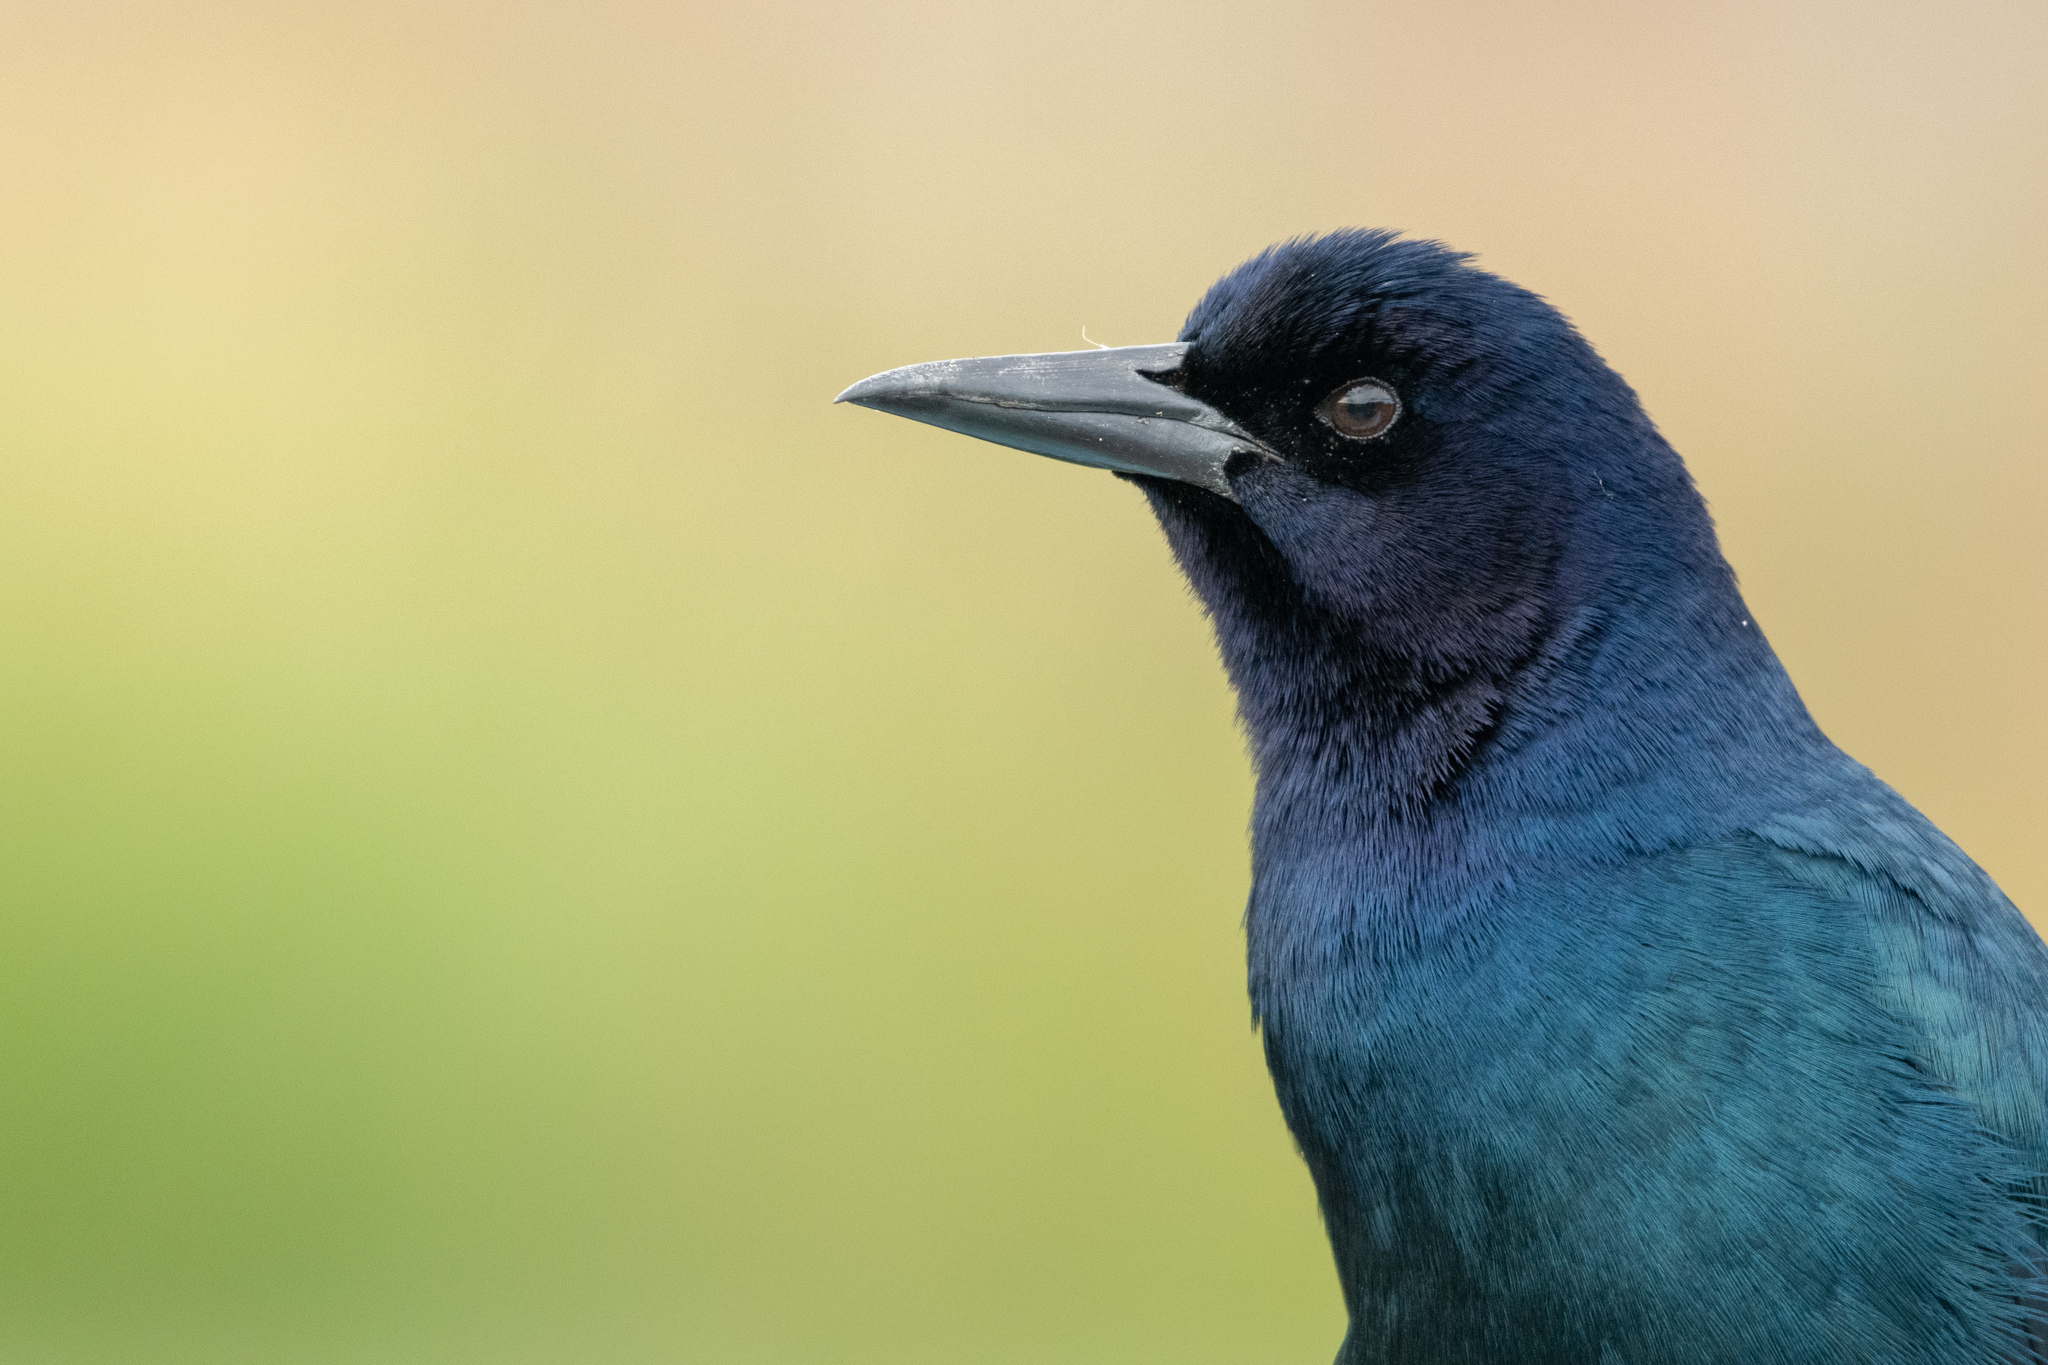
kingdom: Animalia
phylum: Chordata
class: Aves
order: Passeriformes
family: Icteridae
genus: Quiscalus
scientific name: Quiscalus major
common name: Boat-tailed grackle
